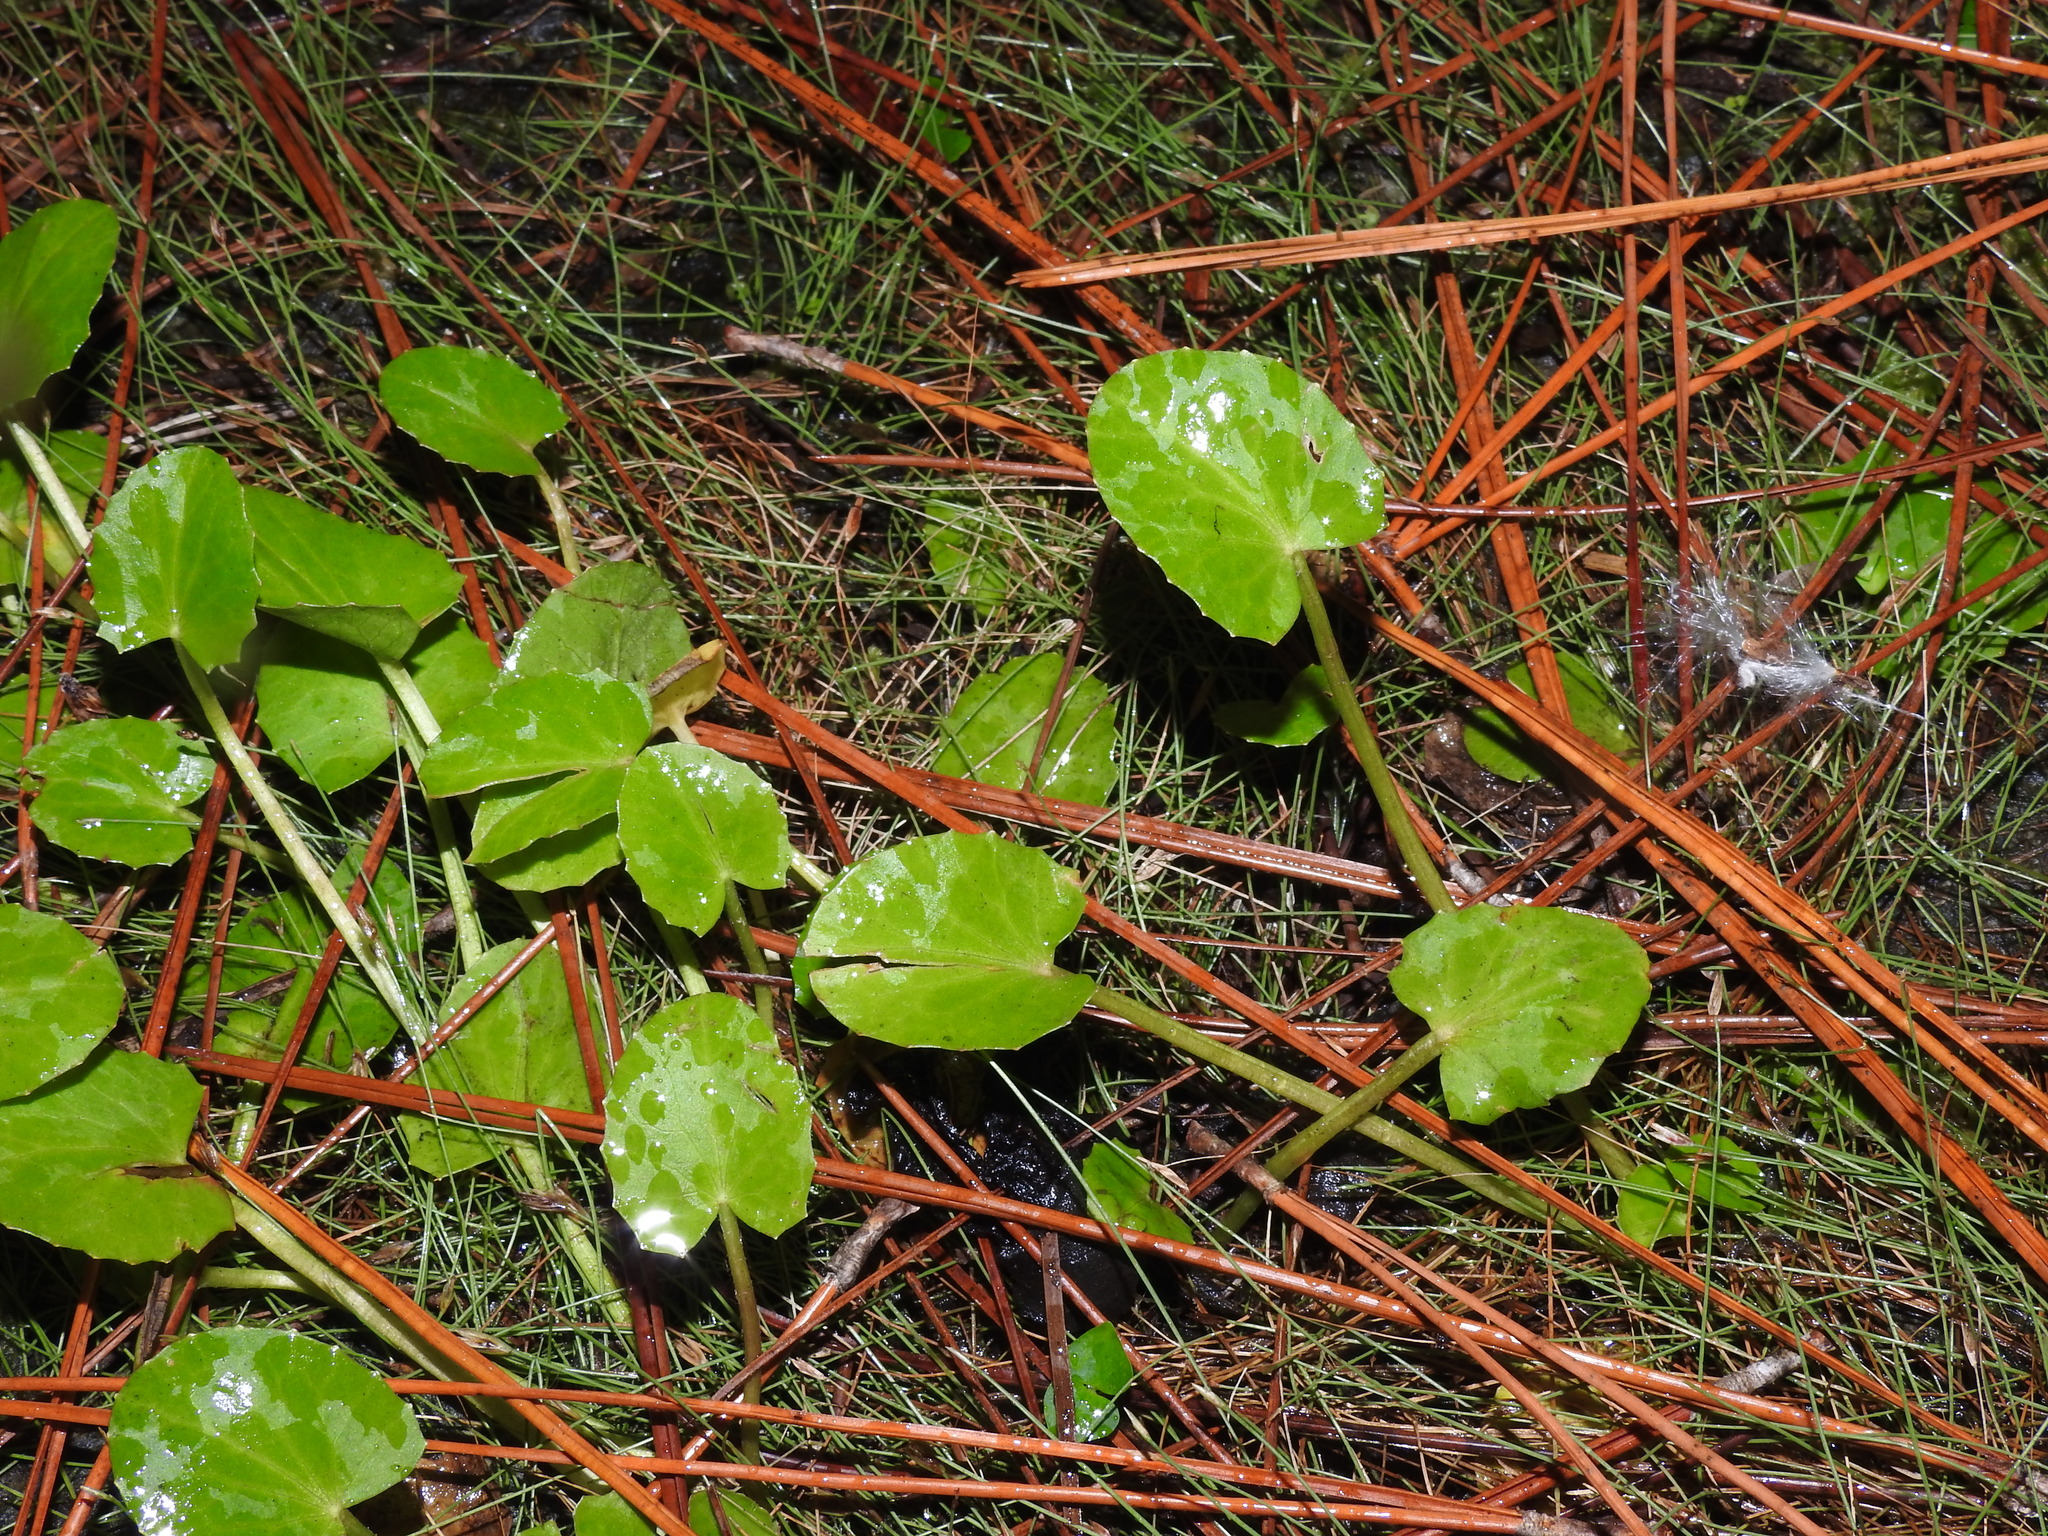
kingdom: Plantae
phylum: Tracheophyta
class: Magnoliopsida
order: Apiales
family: Apiaceae
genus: Centella
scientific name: Centella erecta
